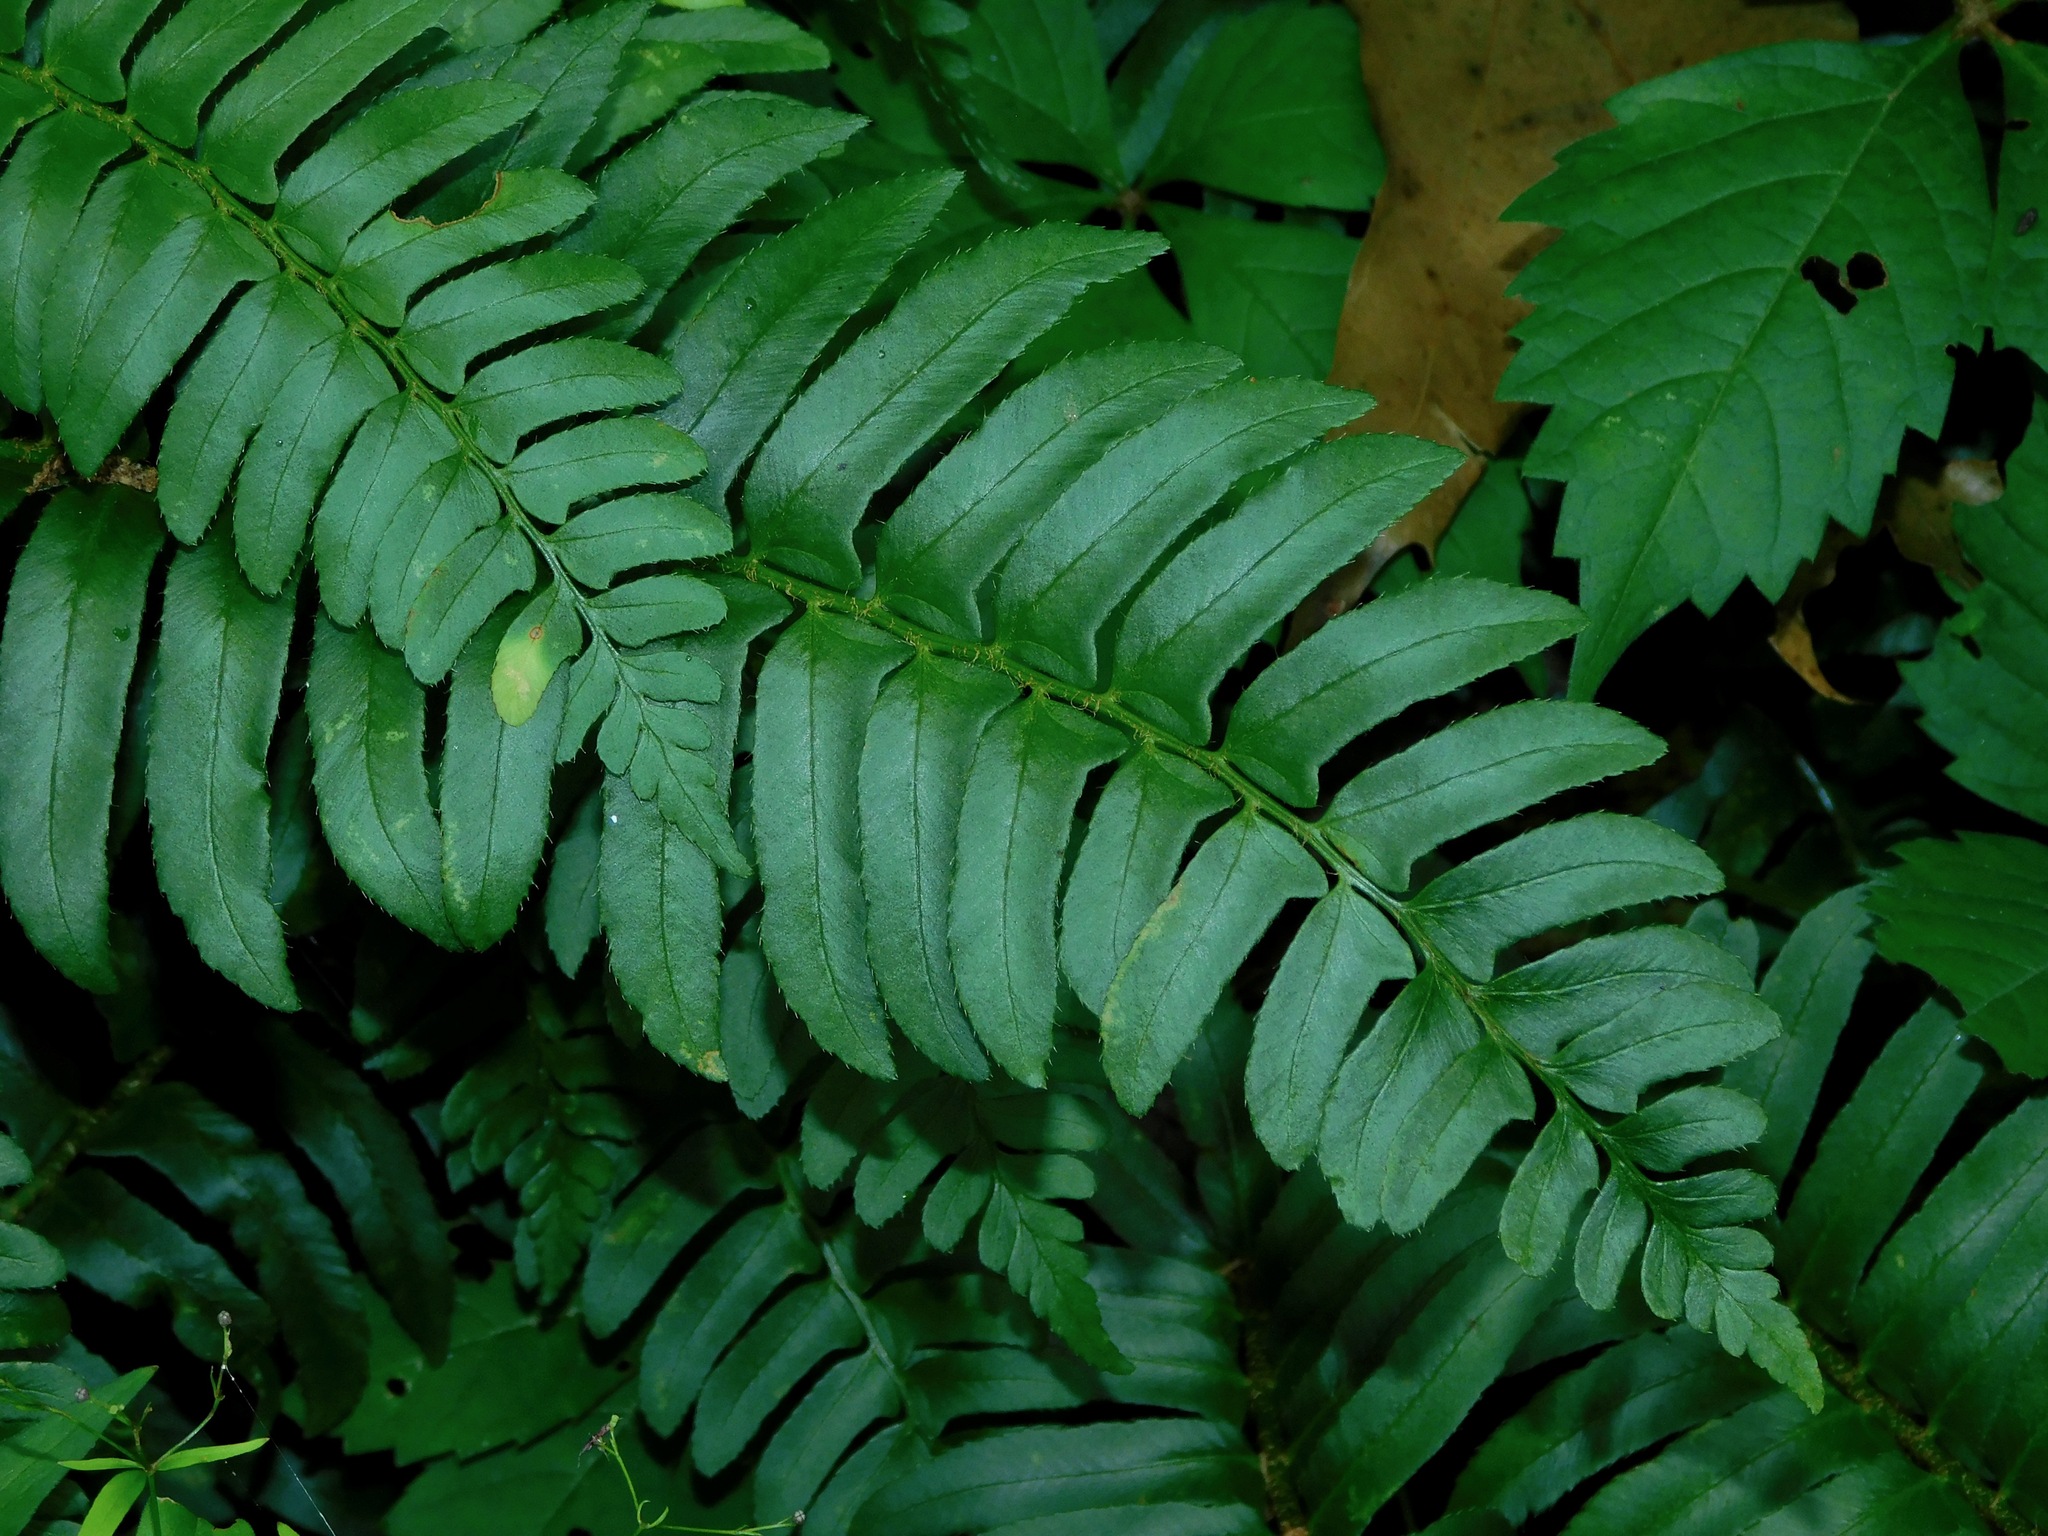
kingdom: Plantae
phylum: Tracheophyta
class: Polypodiopsida
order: Polypodiales
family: Dryopteridaceae
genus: Polystichum
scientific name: Polystichum acrostichoides
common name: Christmas fern
